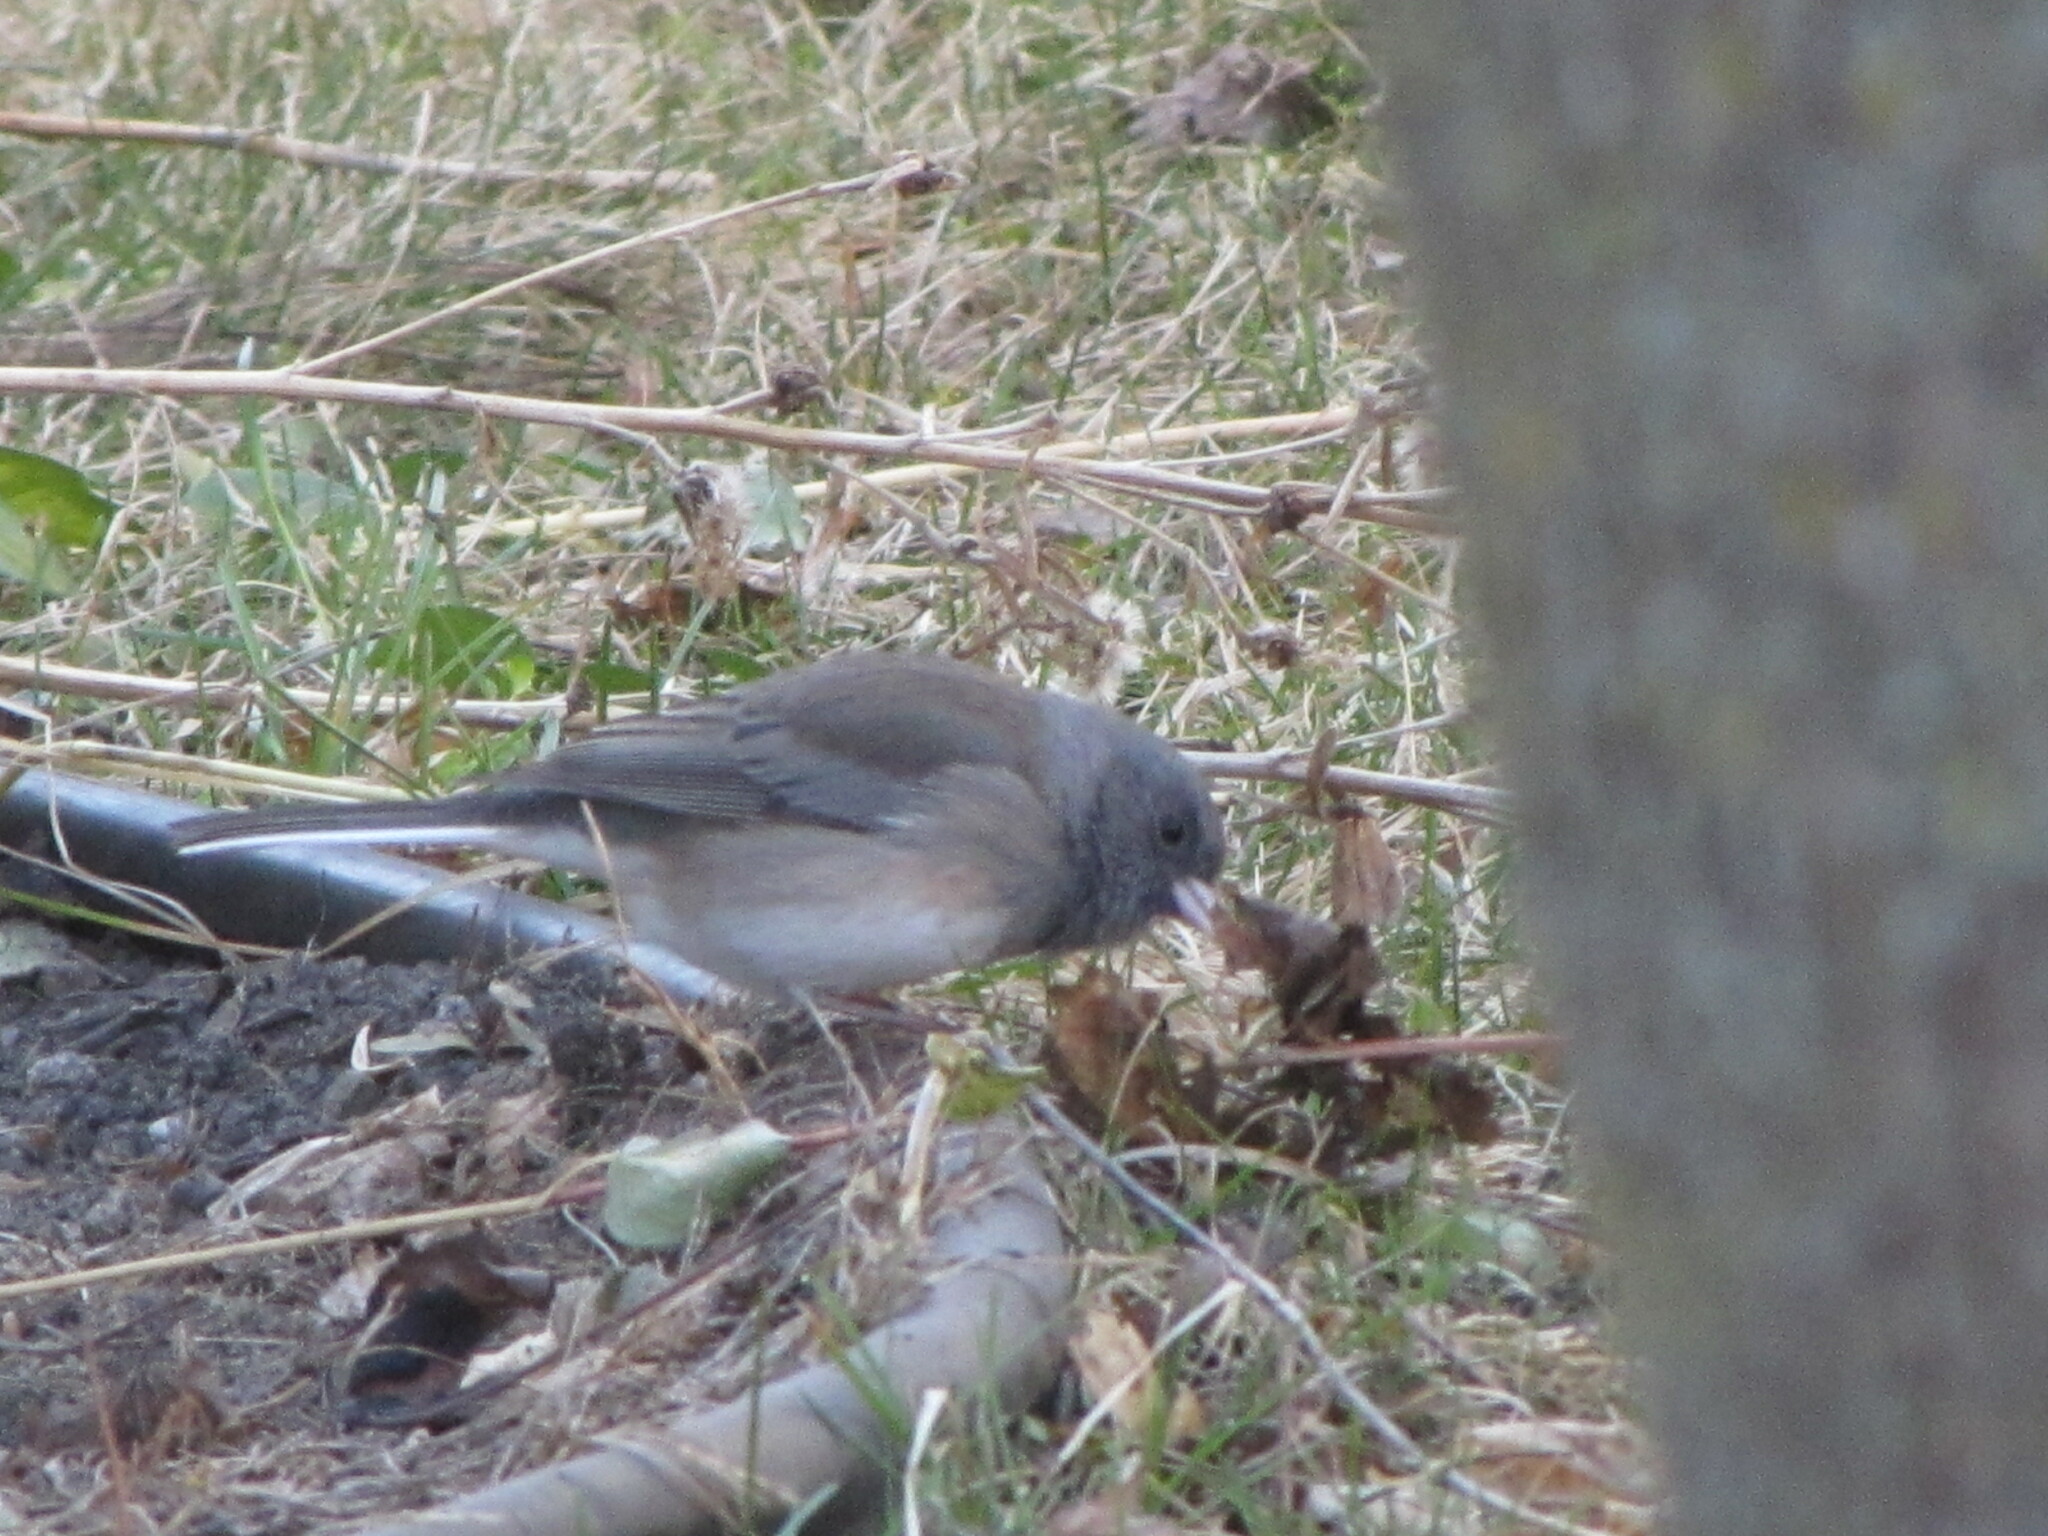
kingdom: Animalia
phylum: Chordata
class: Aves
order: Passeriformes
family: Passerellidae
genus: Junco
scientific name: Junco hyemalis
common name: Dark-eyed junco
